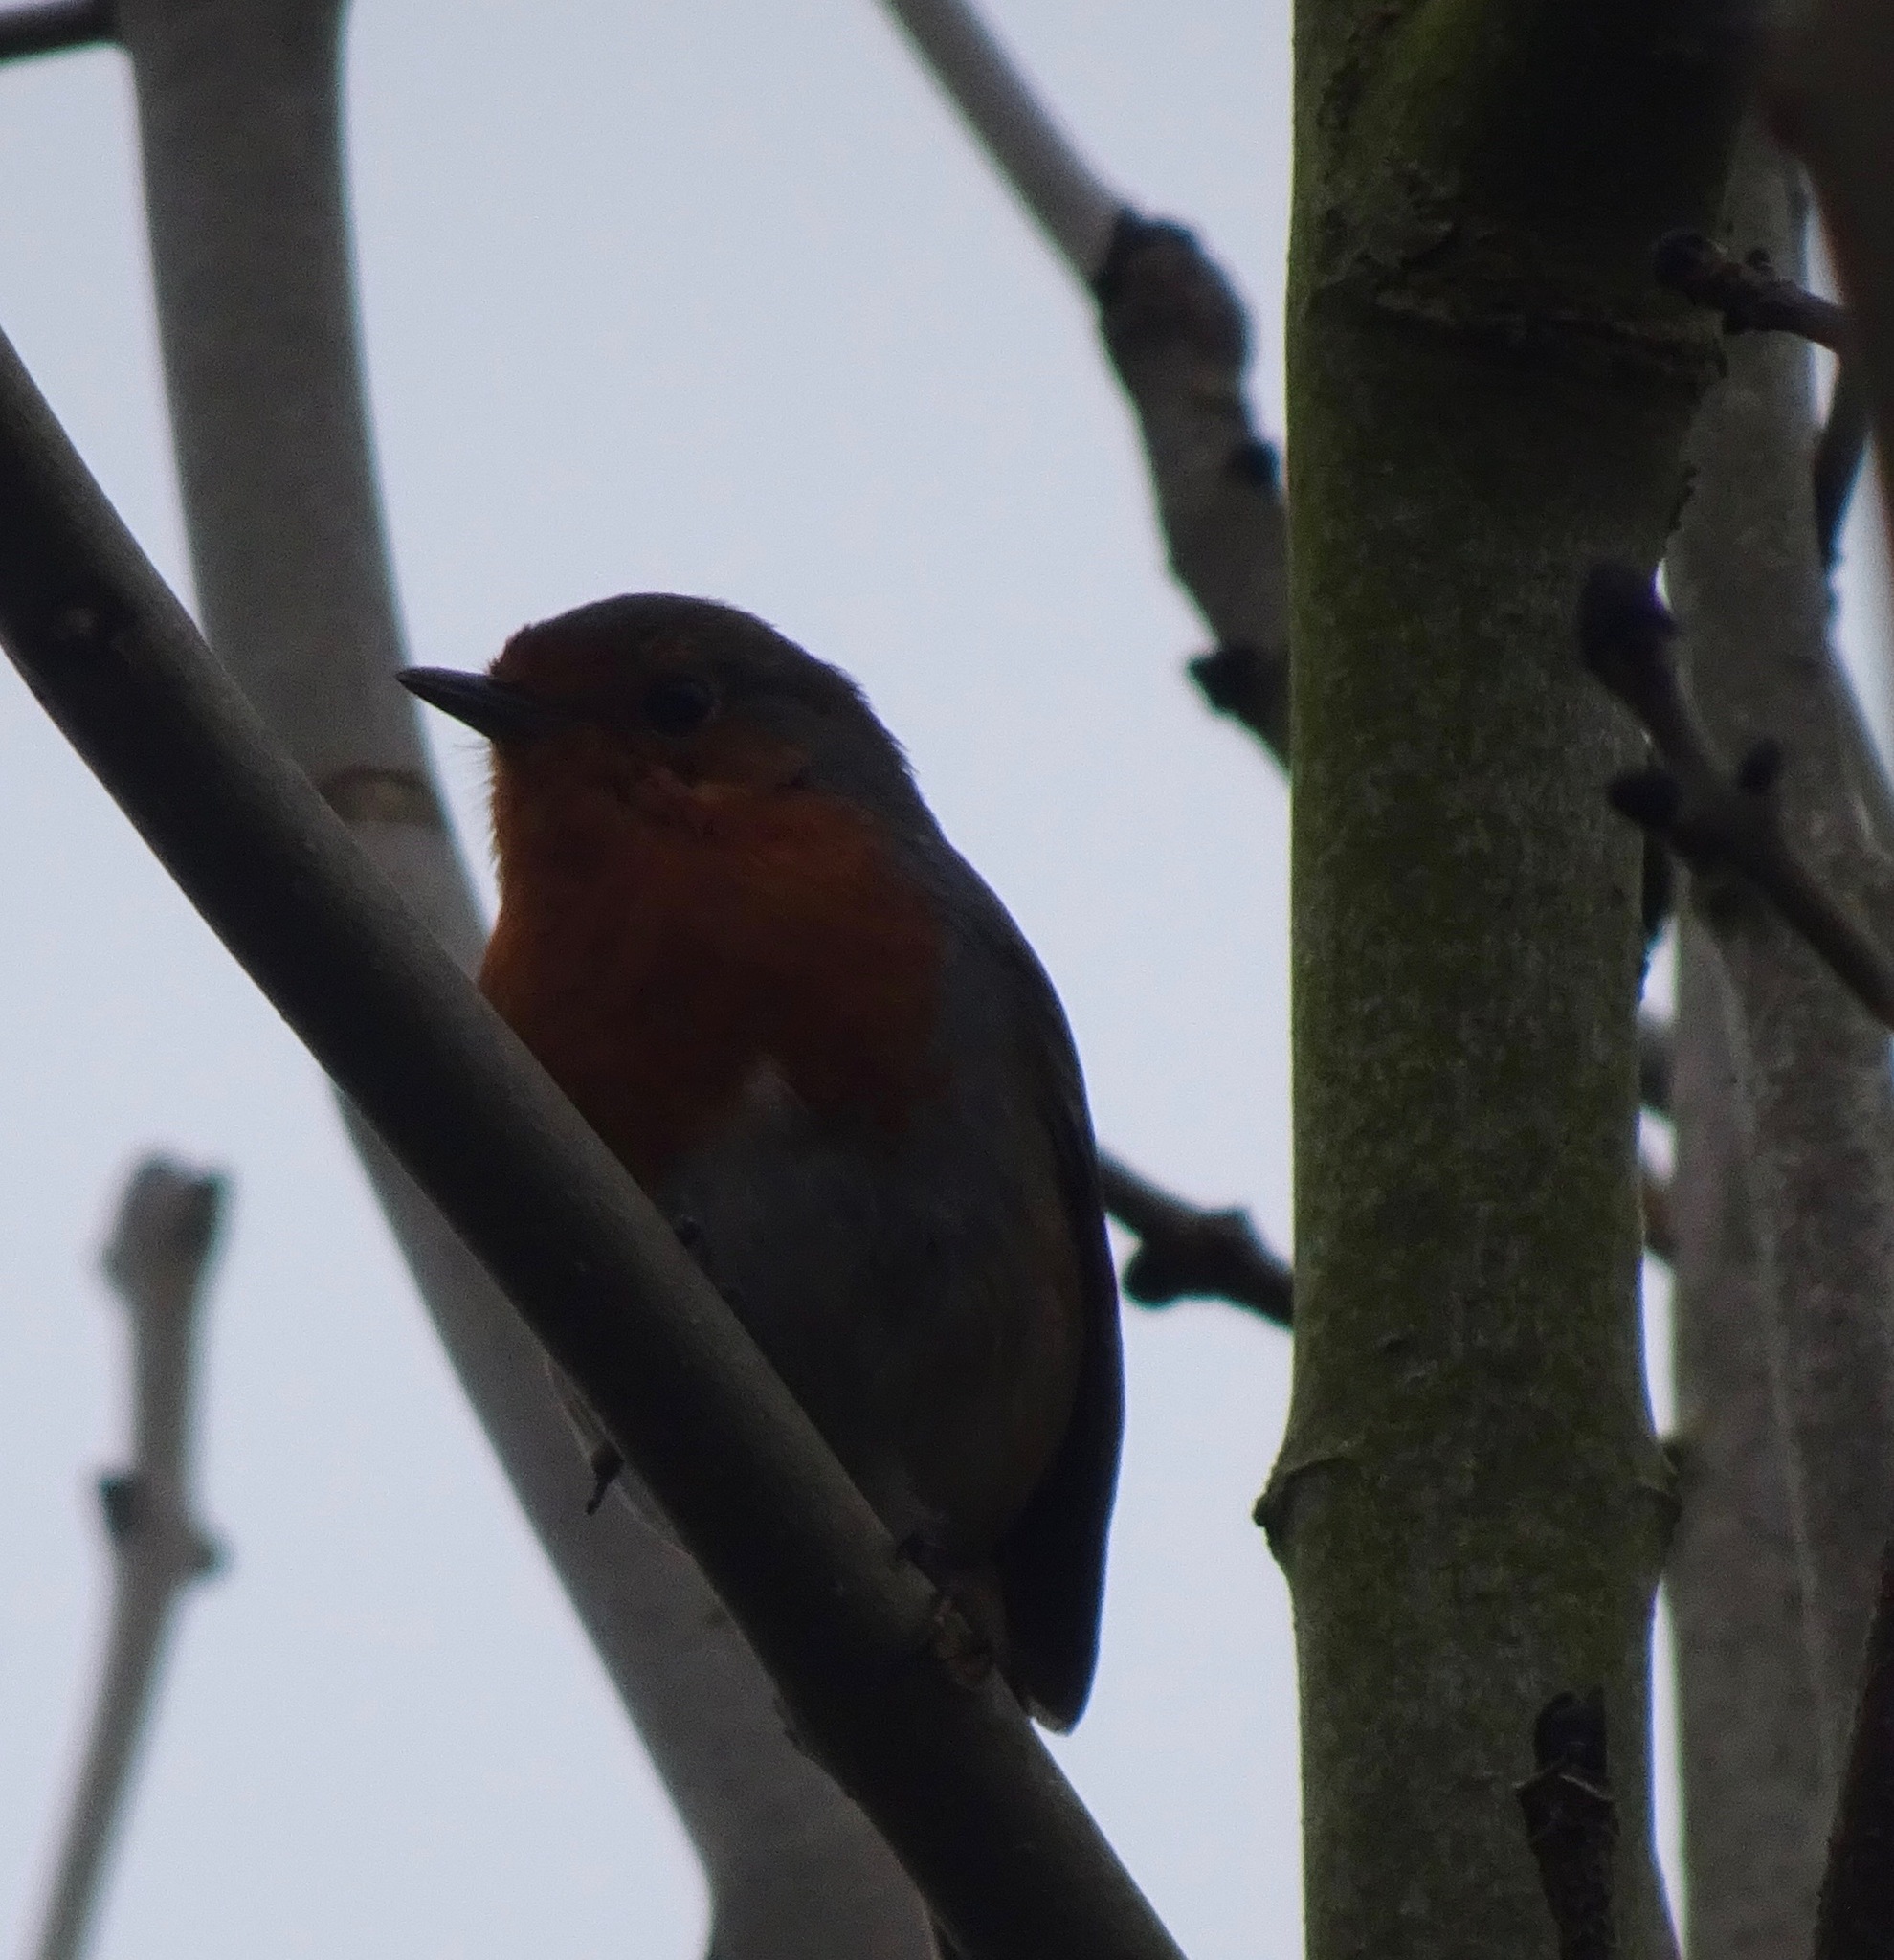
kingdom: Animalia
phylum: Chordata
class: Aves
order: Passeriformes
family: Muscicapidae
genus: Erithacus
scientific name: Erithacus rubecula
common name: European robin
